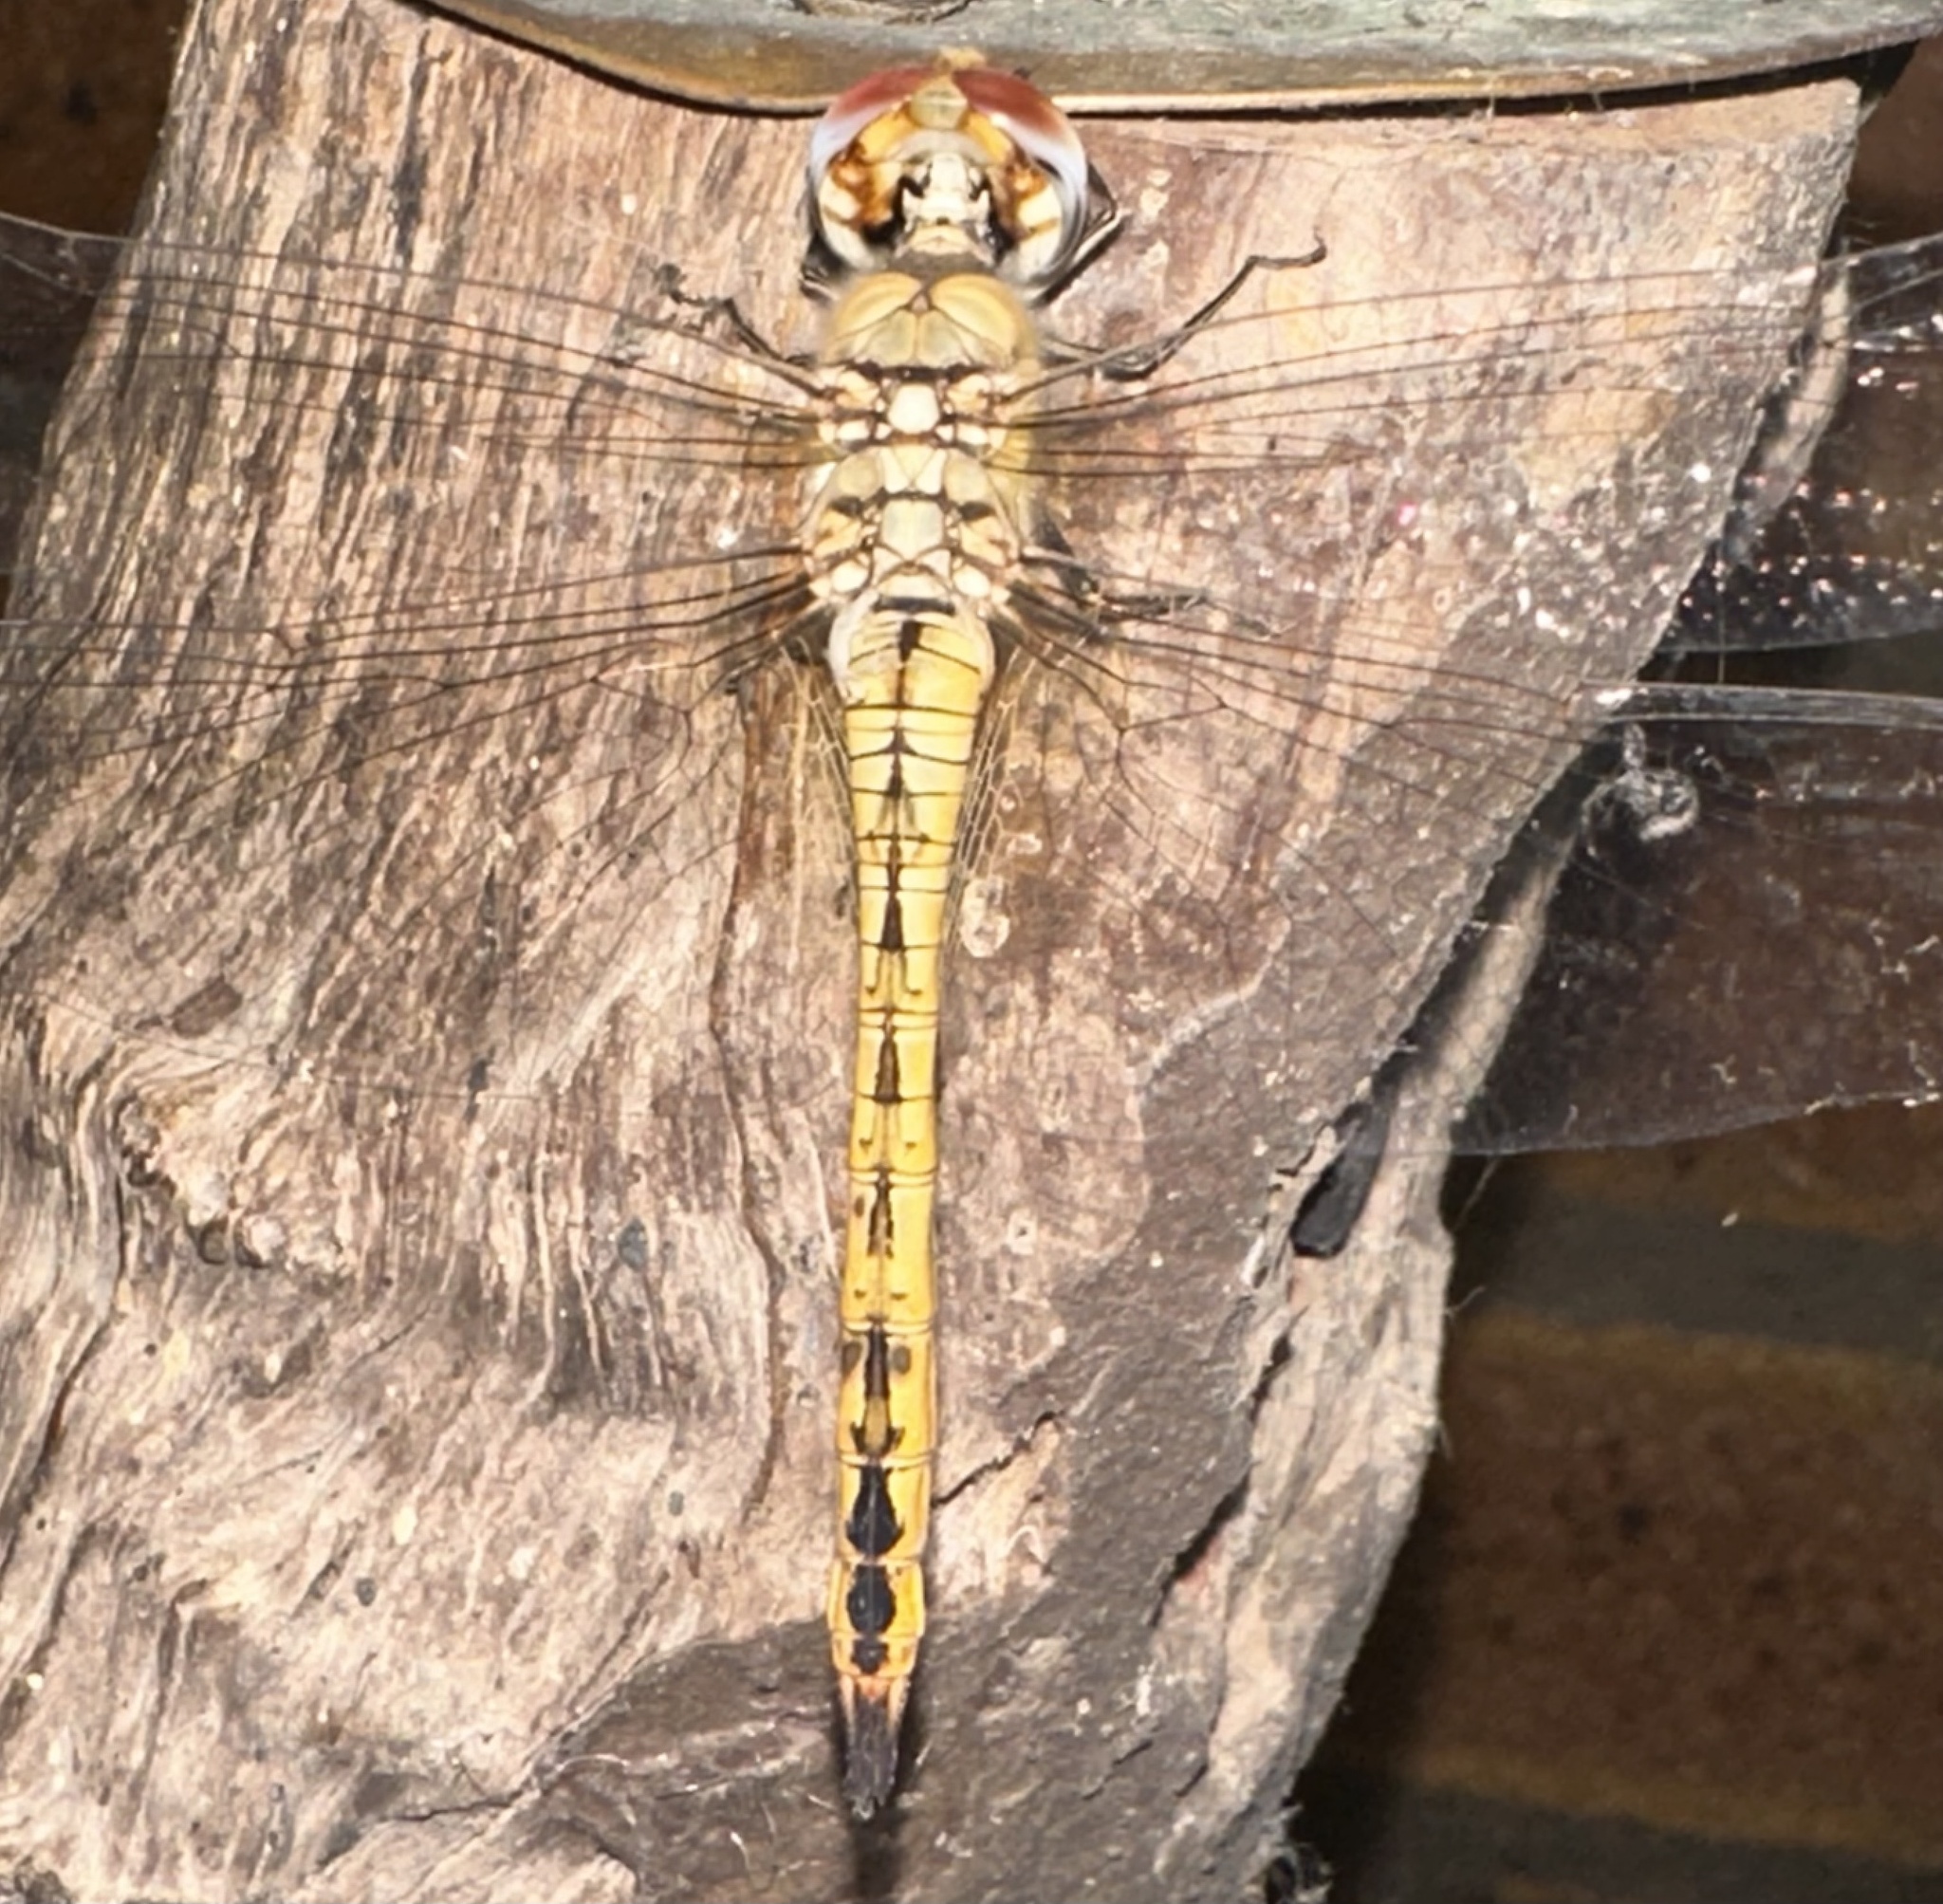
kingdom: Animalia
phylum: Arthropoda
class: Insecta
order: Odonata
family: Libellulidae
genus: Pantala
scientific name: Pantala flavescens
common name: Wandering glider
